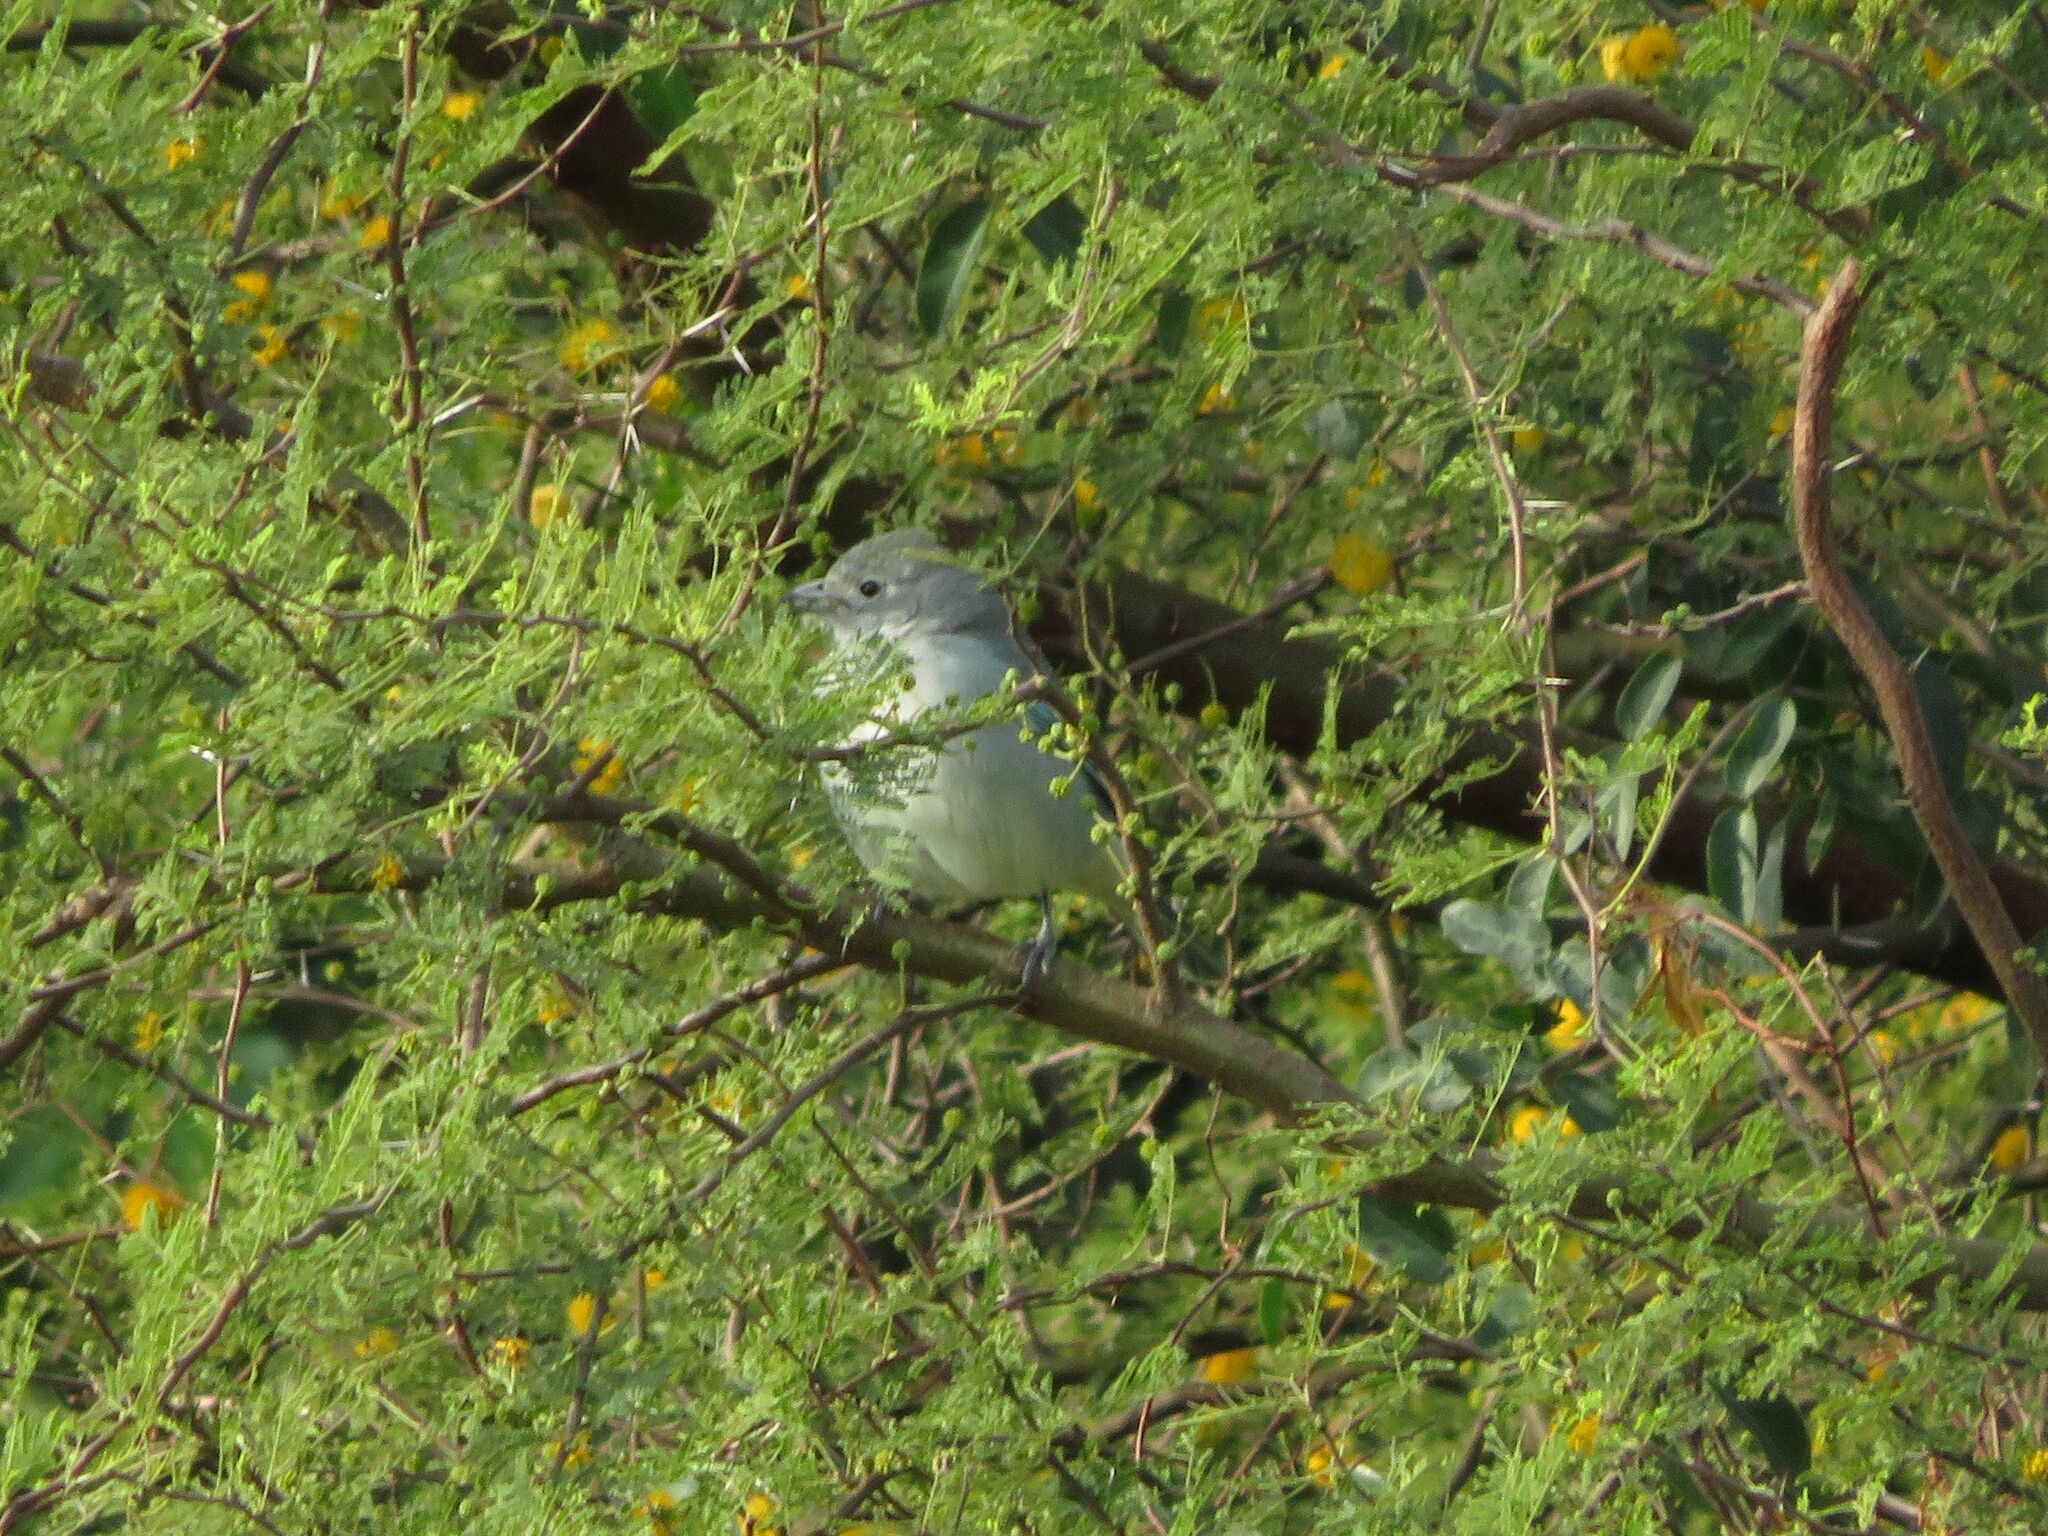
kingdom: Animalia
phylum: Chordata
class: Aves
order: Passeriformes
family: Thraupidae
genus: Thraupis
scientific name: Thraupis sayaca
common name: Sayaca tanager
